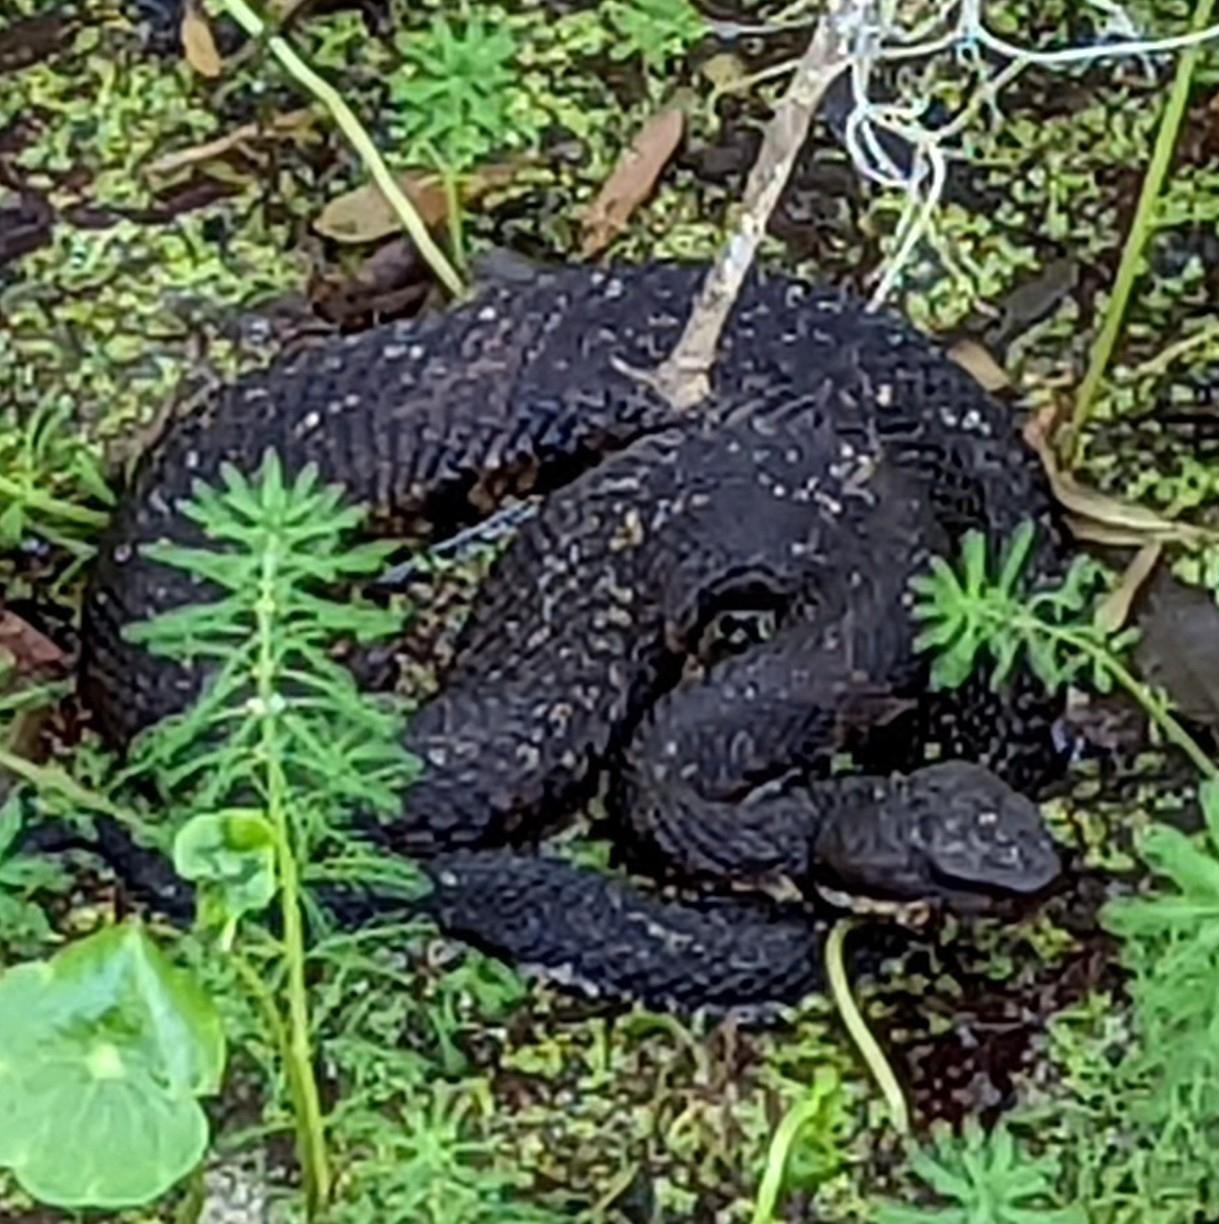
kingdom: Animalia
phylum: Chordata
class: Squamata
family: Viperidae
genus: Agkistrodon
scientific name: Agkistrodon piscivorus
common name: Cottonmouth
